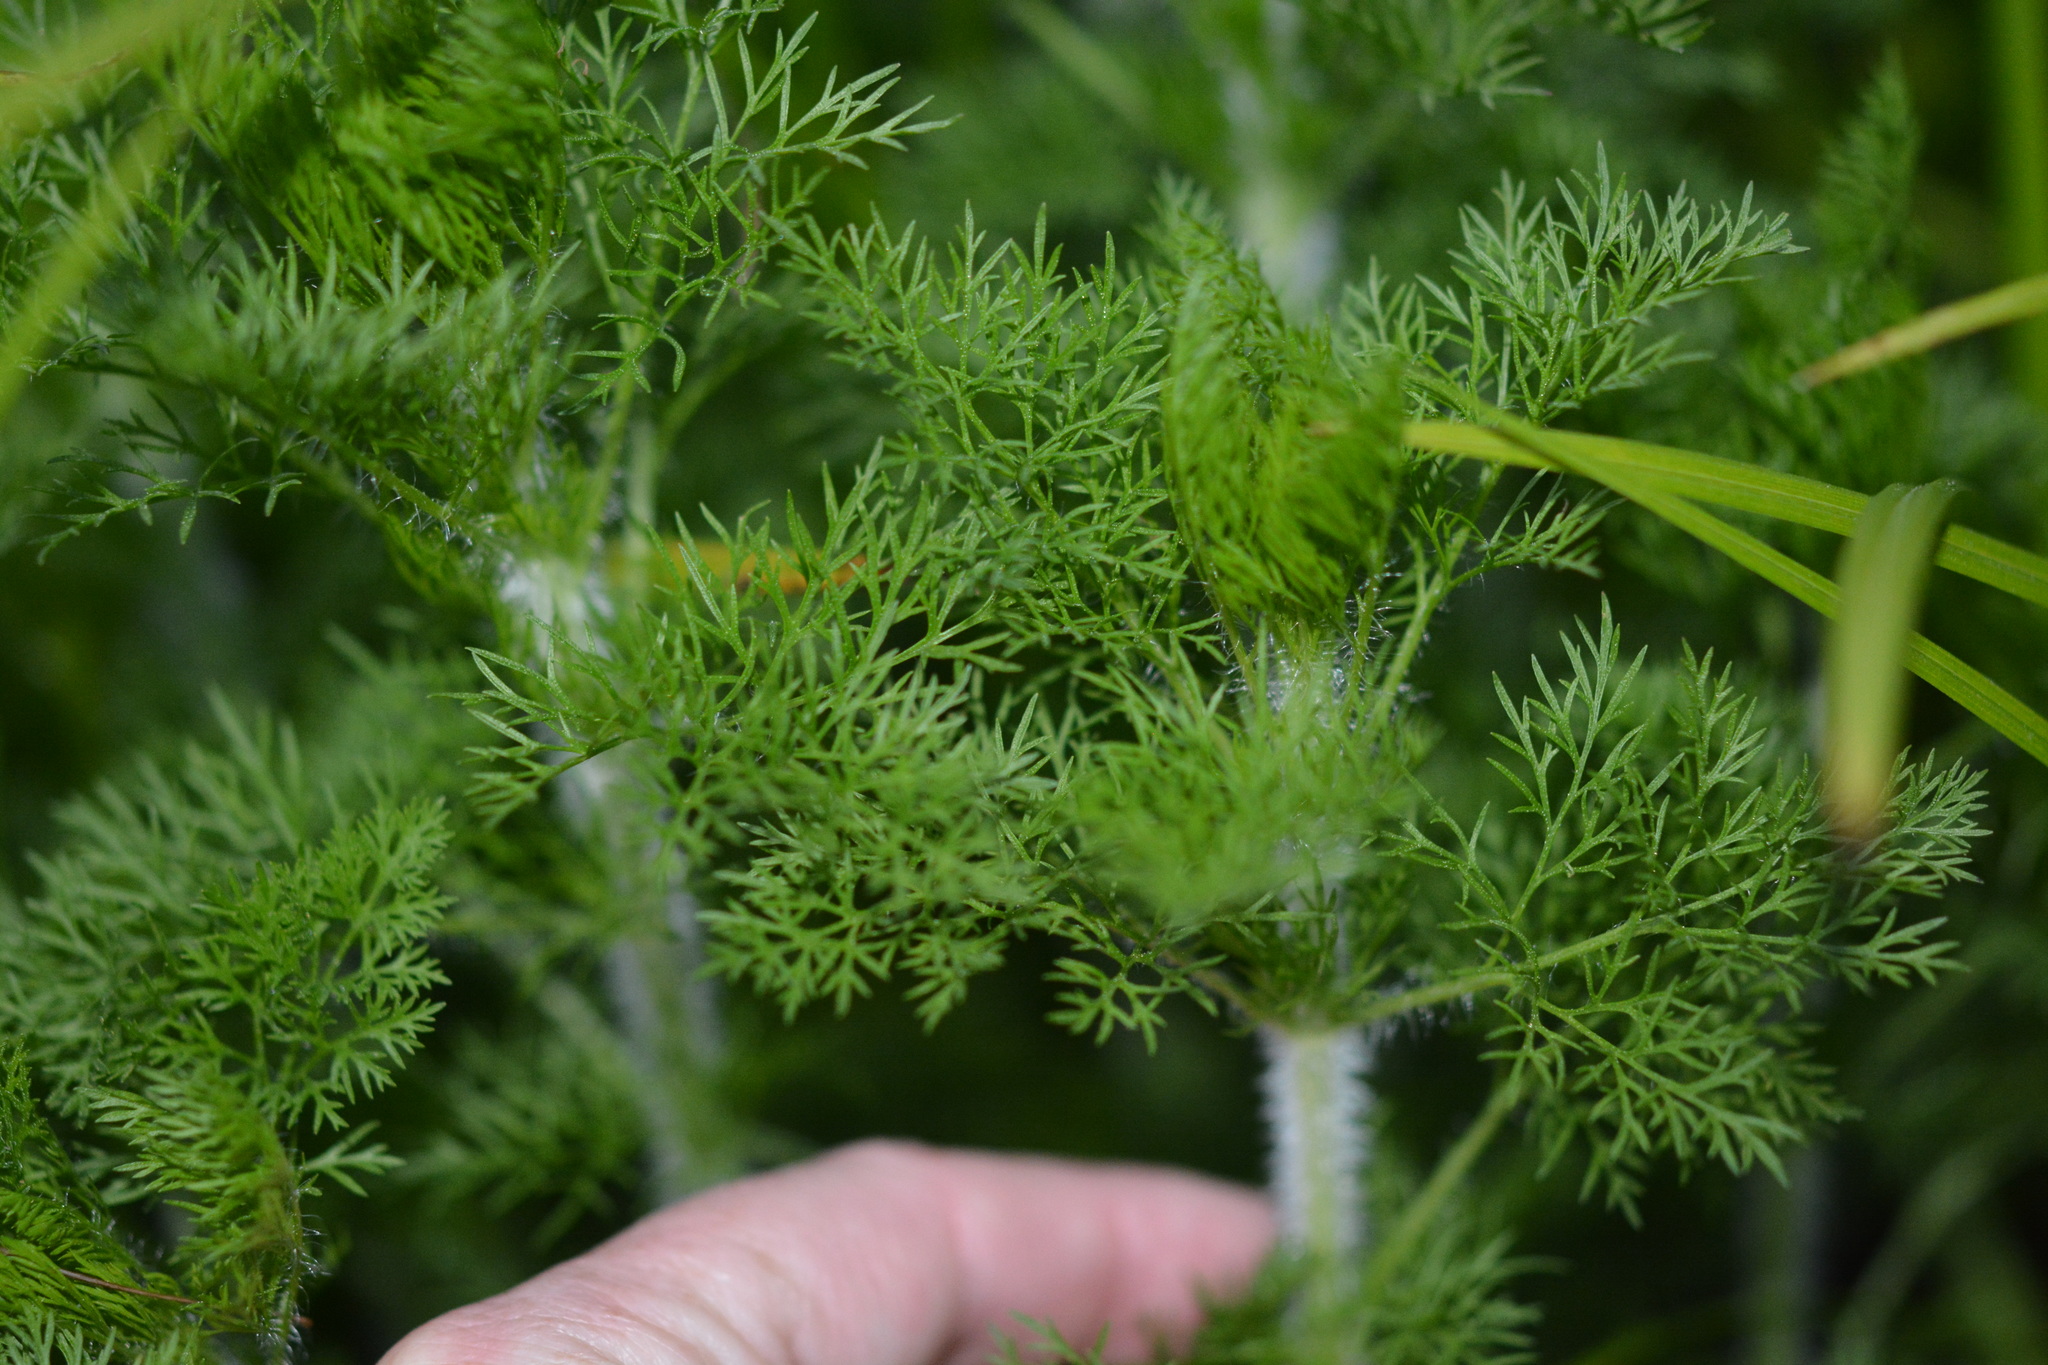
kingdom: Plantae
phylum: Tracheophyta
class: Magnoliopsida
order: Asterales
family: Asteraceae
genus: Eupatorium
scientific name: Eupatorium capillifolium
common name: Dog-fennel
